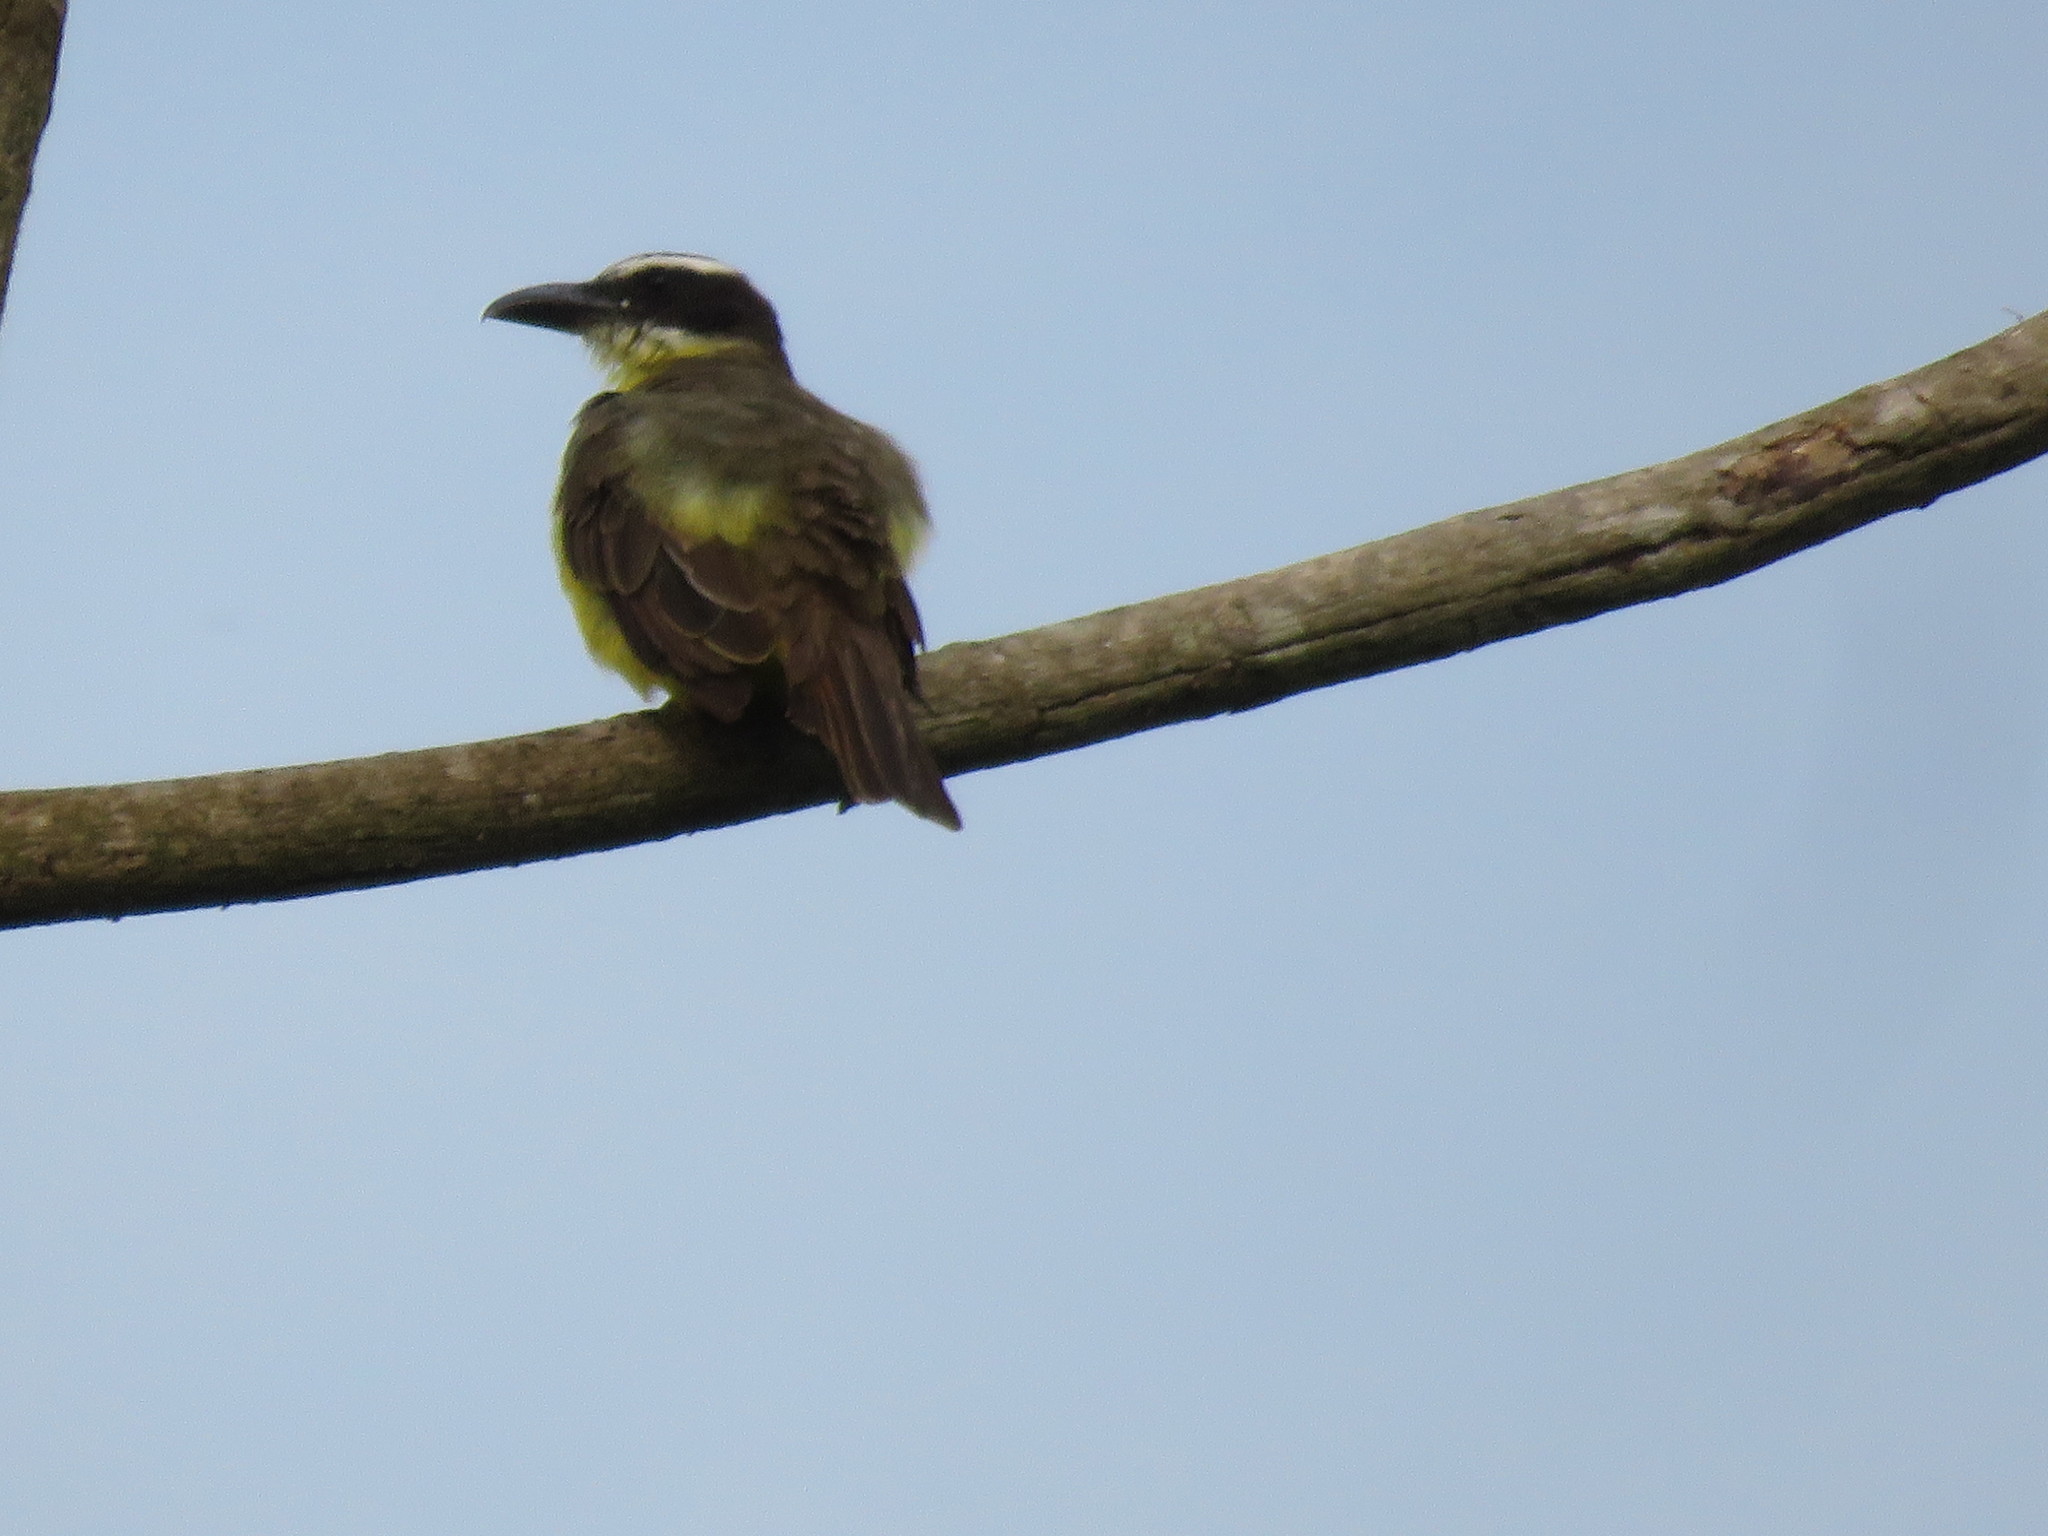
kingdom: Animalia
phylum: Chordata
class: Aves
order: Passeriformes
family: Tyrannidae
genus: Megarynchus
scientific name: Megarynchus pitangua
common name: Boat-billed flycatcher
